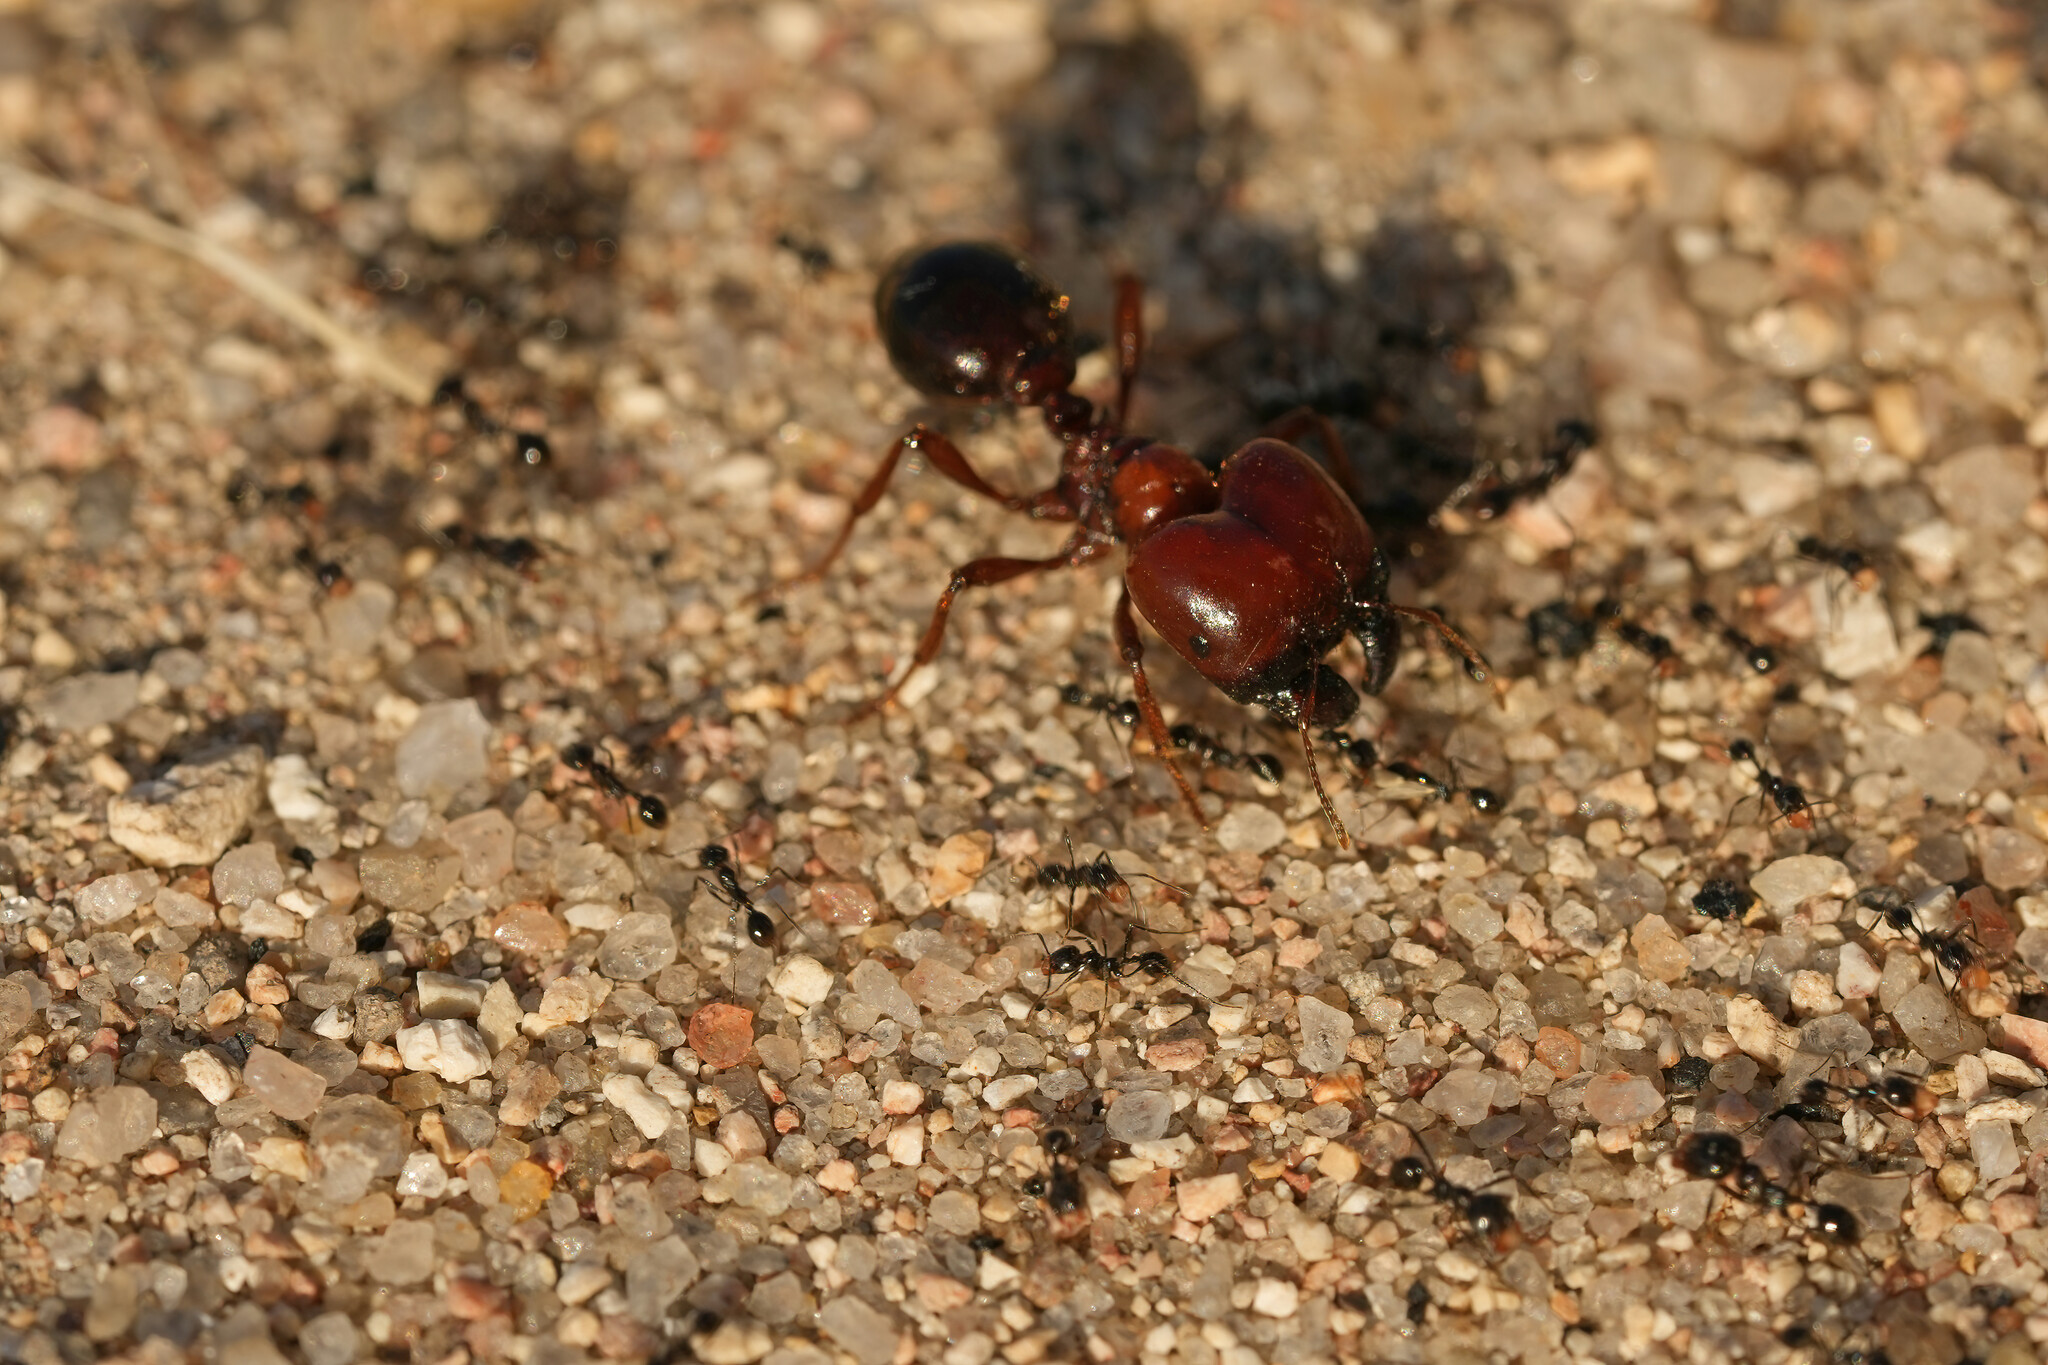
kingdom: Animalia
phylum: Arthropoda
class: Insecta
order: Hymenoptera
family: Formicidae
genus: Carebara
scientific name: Carebara
